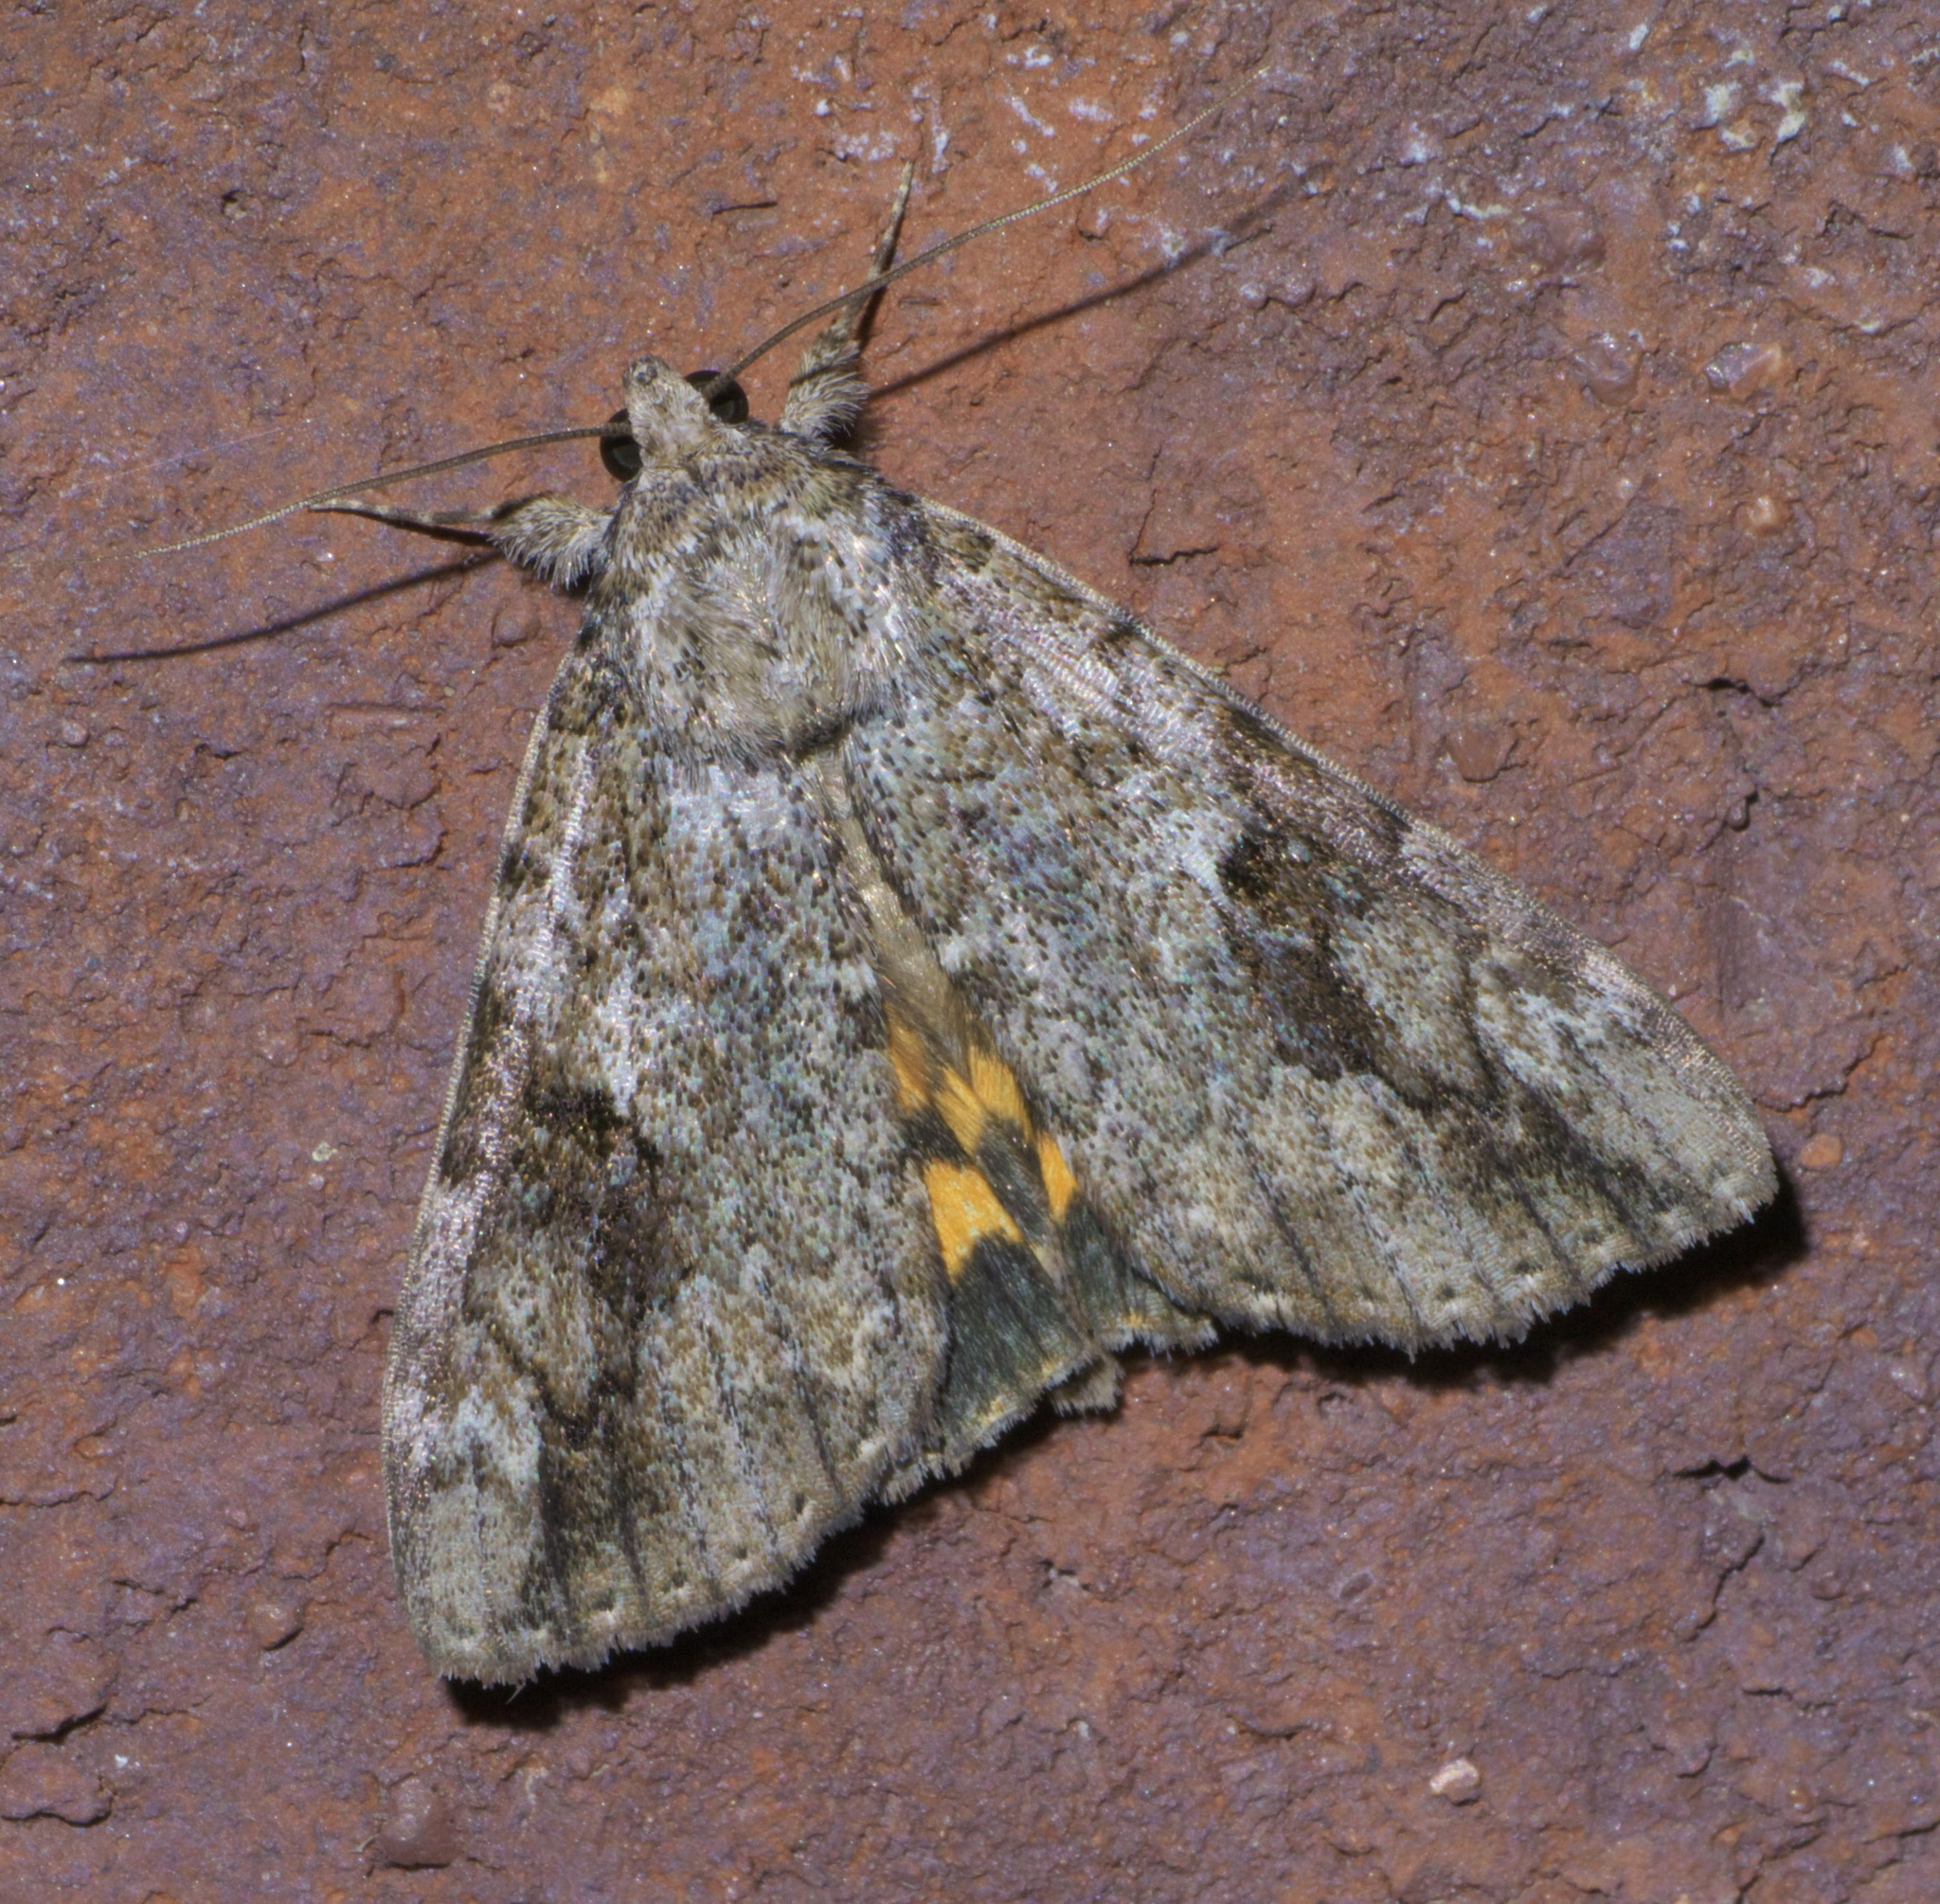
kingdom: Animalia
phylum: Arthropoda
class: Insecta
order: Lepidoptera
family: Erebidae
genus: Catocala
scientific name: Catocala micronympha
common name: Little nymph underwing
